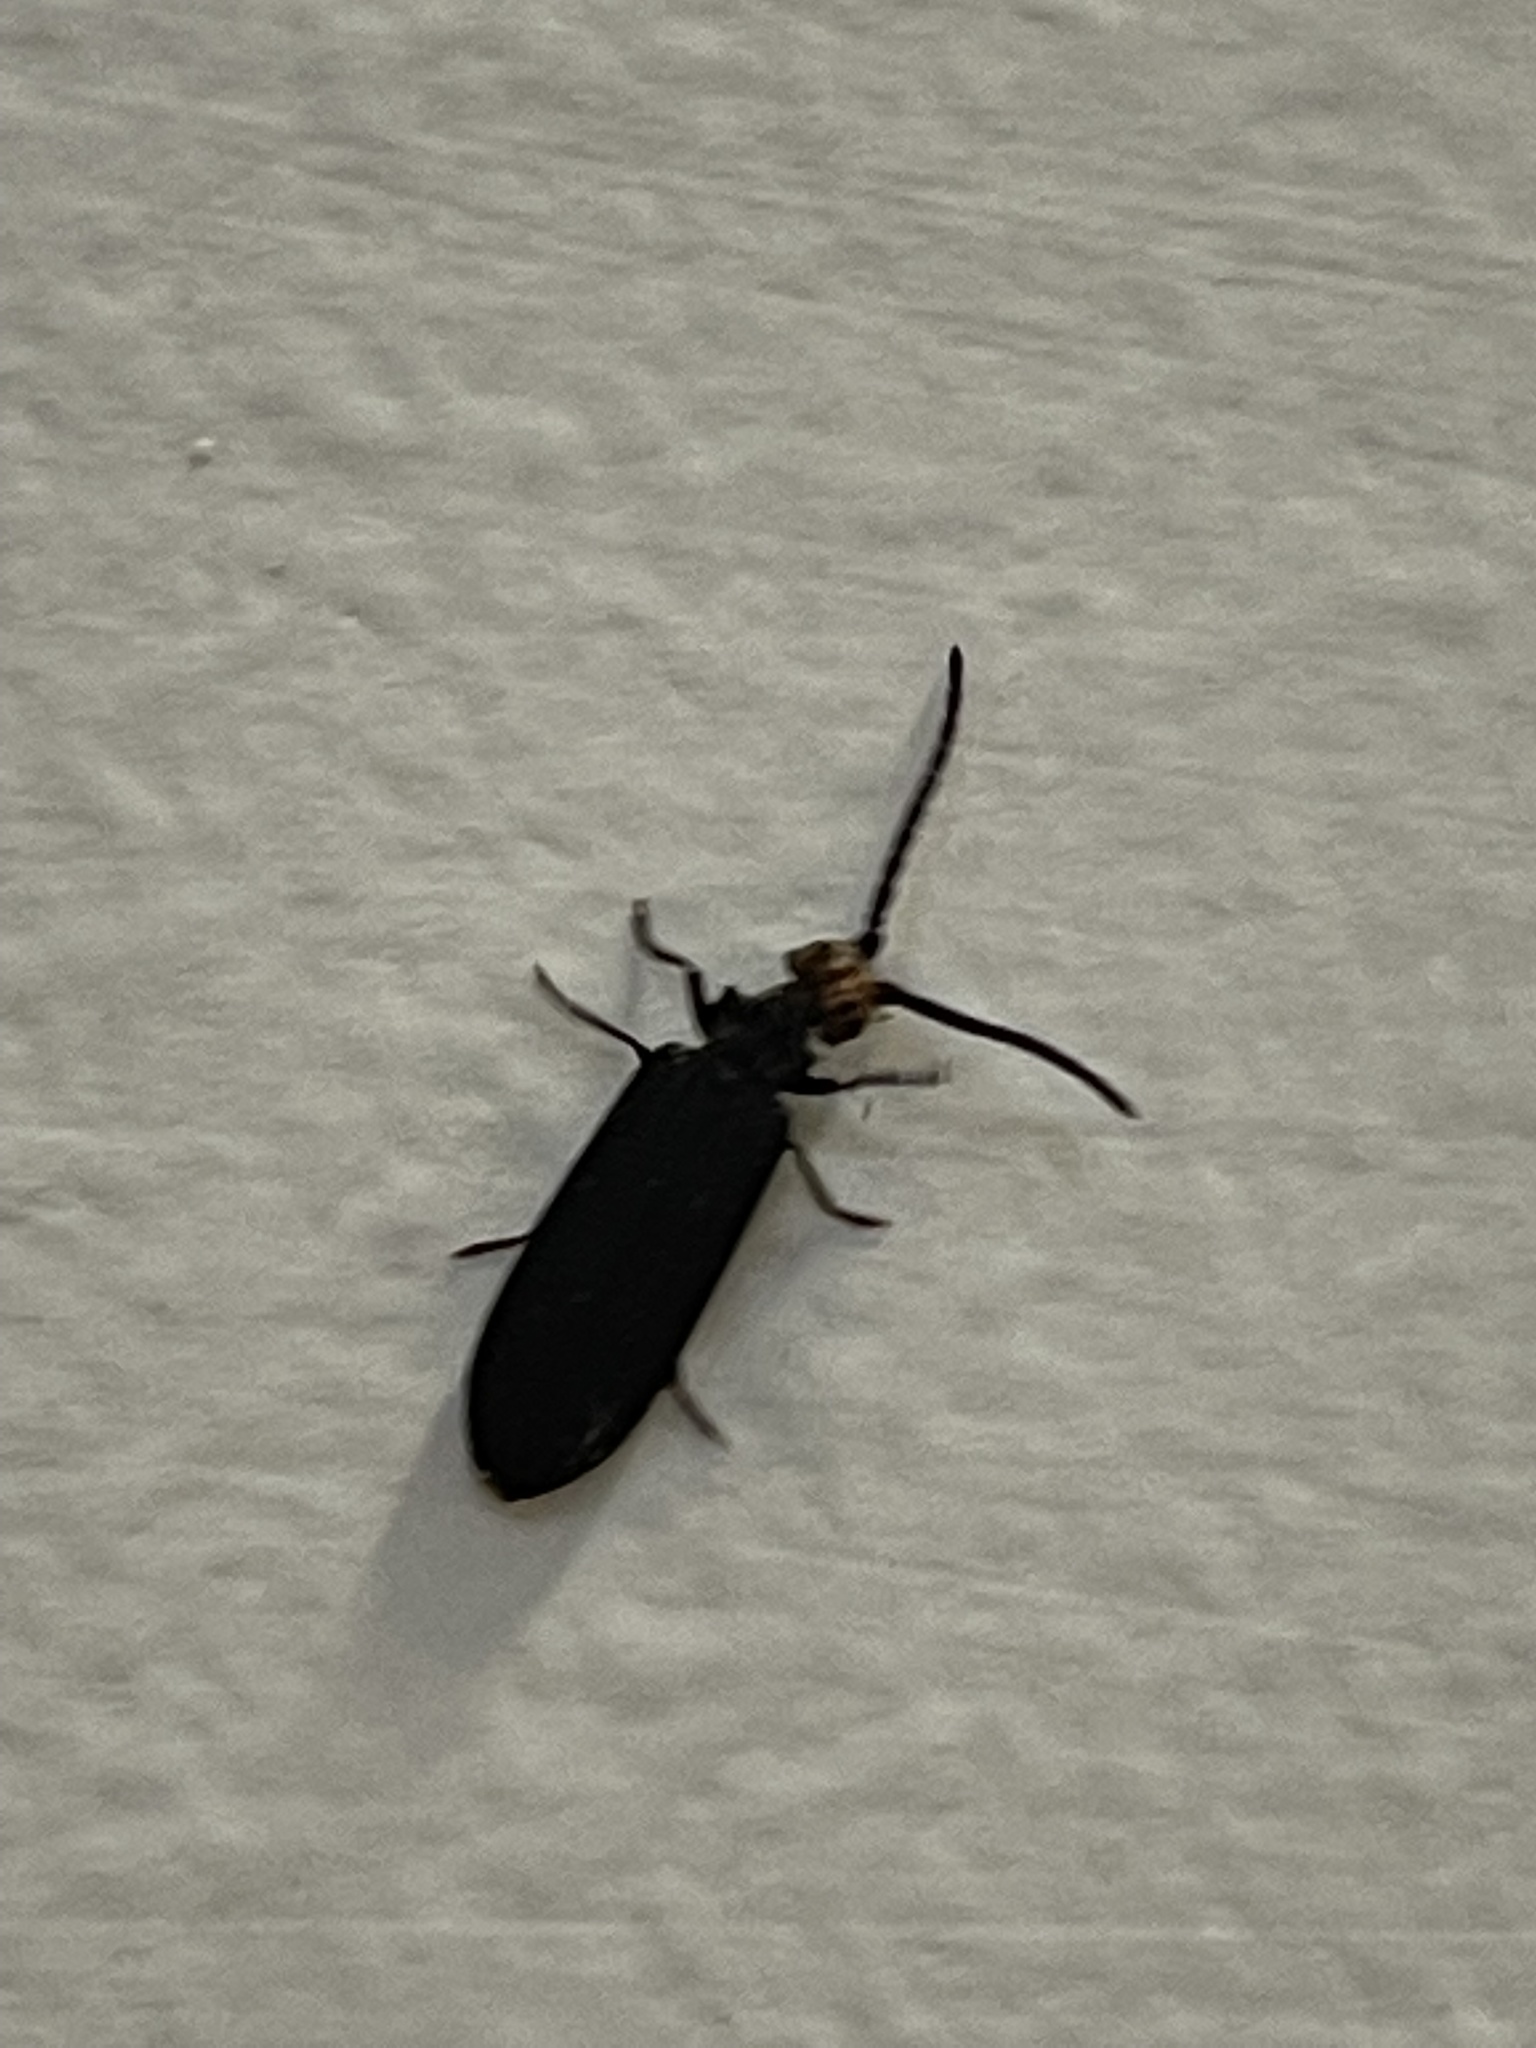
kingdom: Animalia
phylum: Arthropoda
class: Insecta
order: Coleoptera
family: Cupedidae
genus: Cupes
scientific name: Cupes capitata
